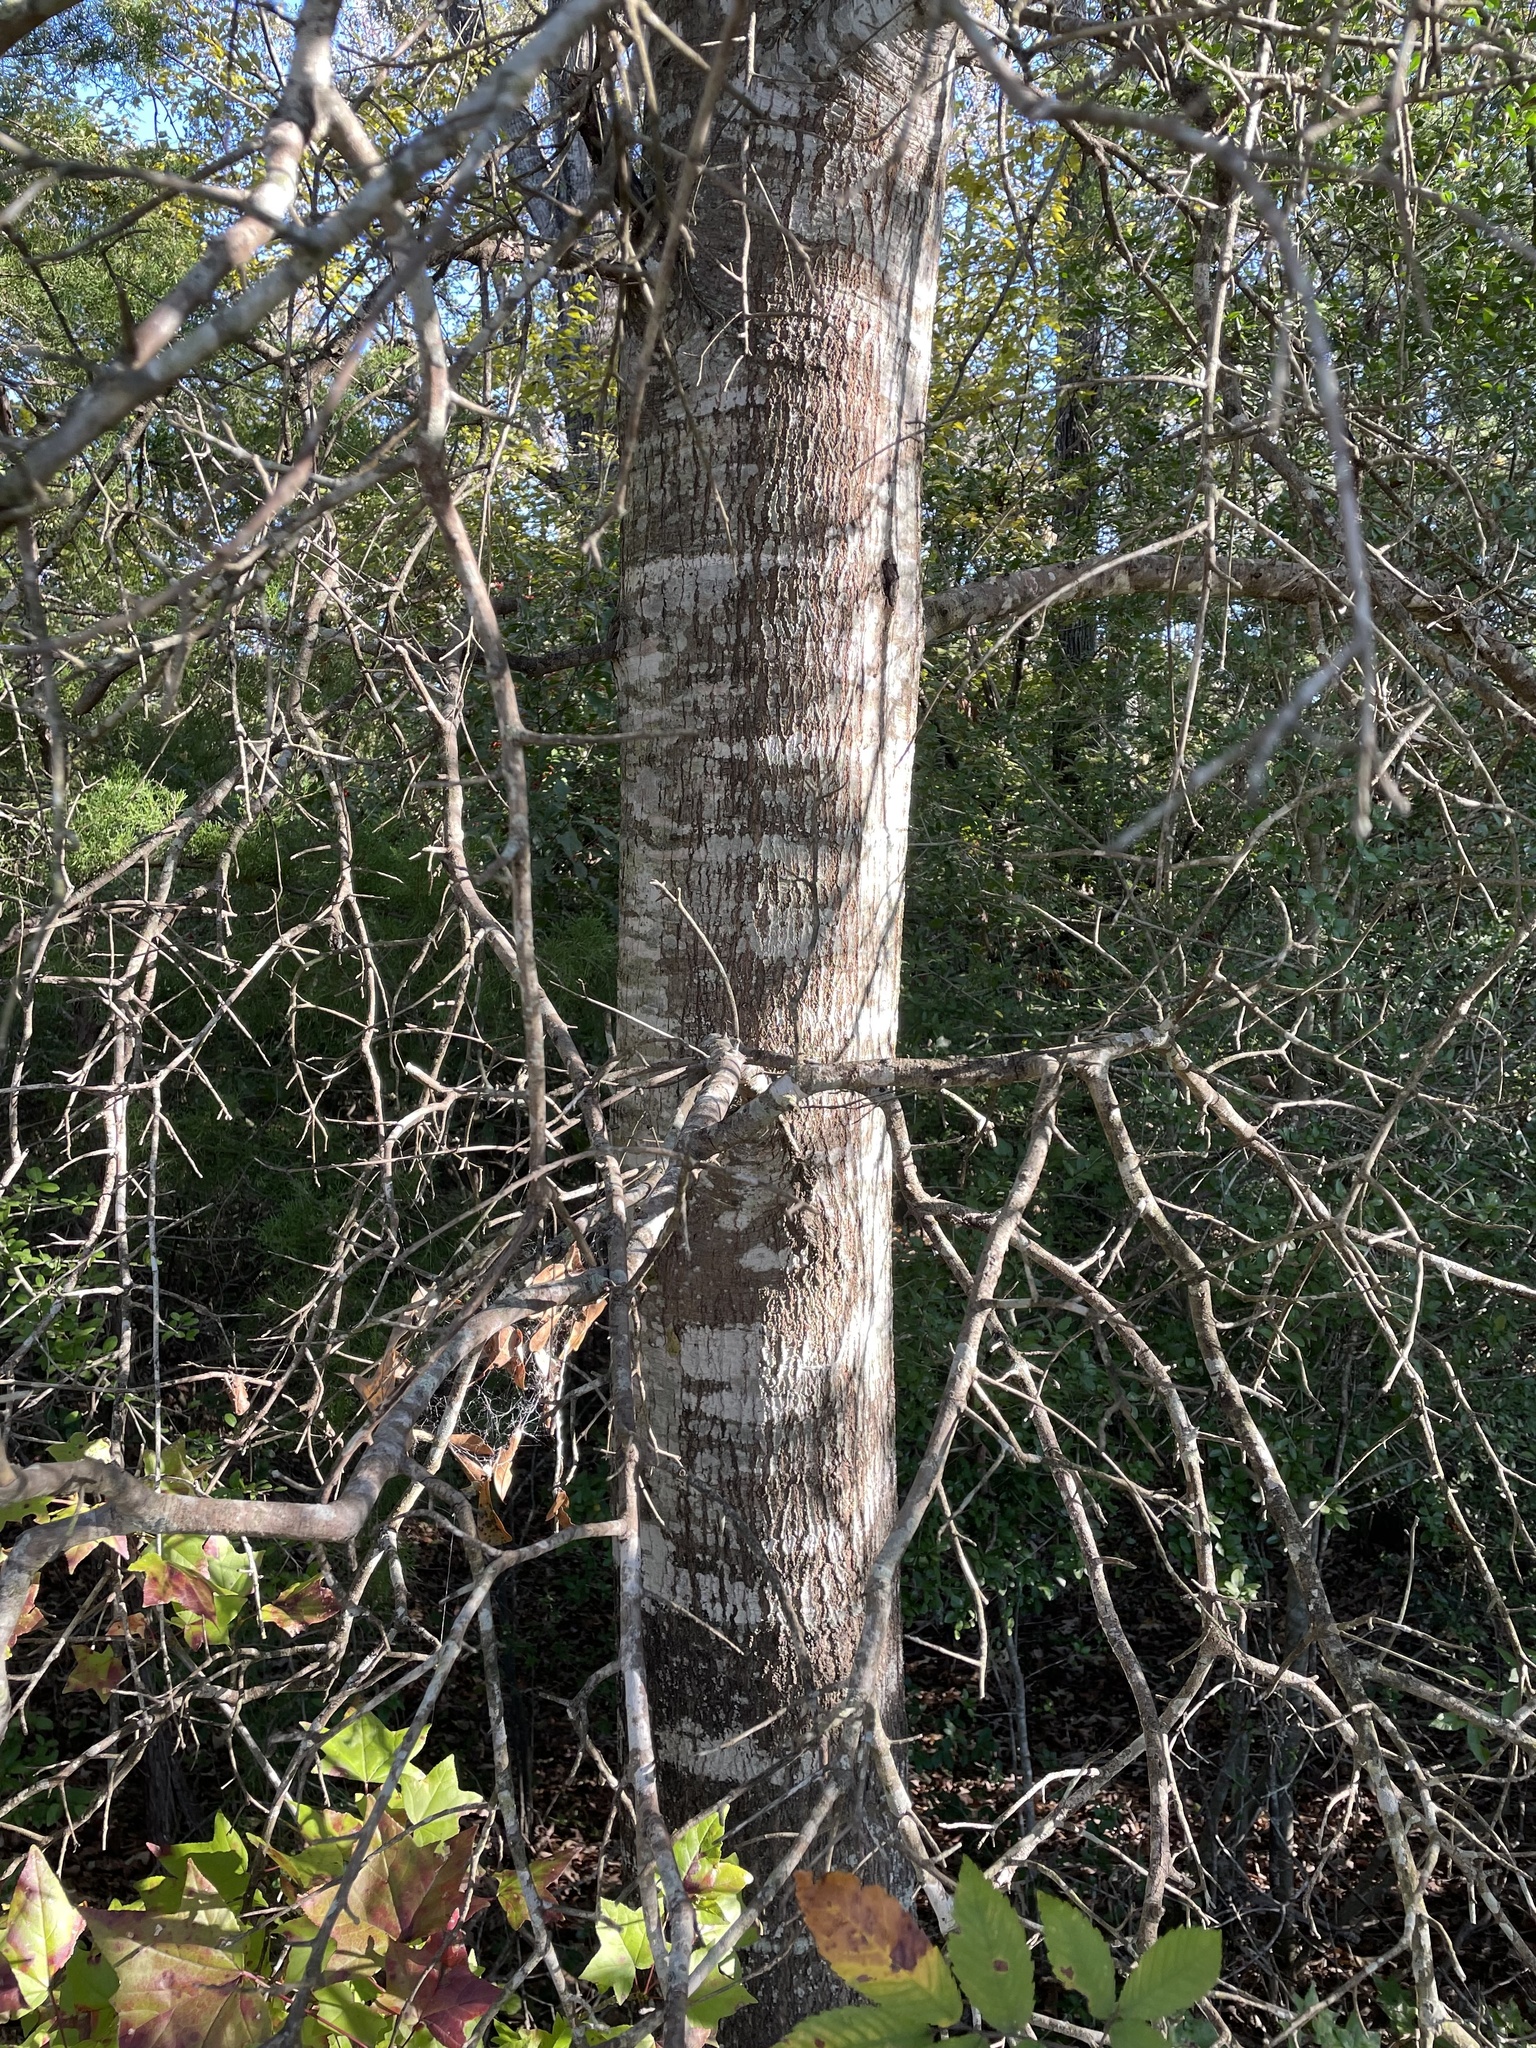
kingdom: Plantae
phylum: Tracheophyta
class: Magnoliopsida
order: Fagales
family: Fagaceae
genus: Quercus
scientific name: Quercus nigra
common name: Water oak
